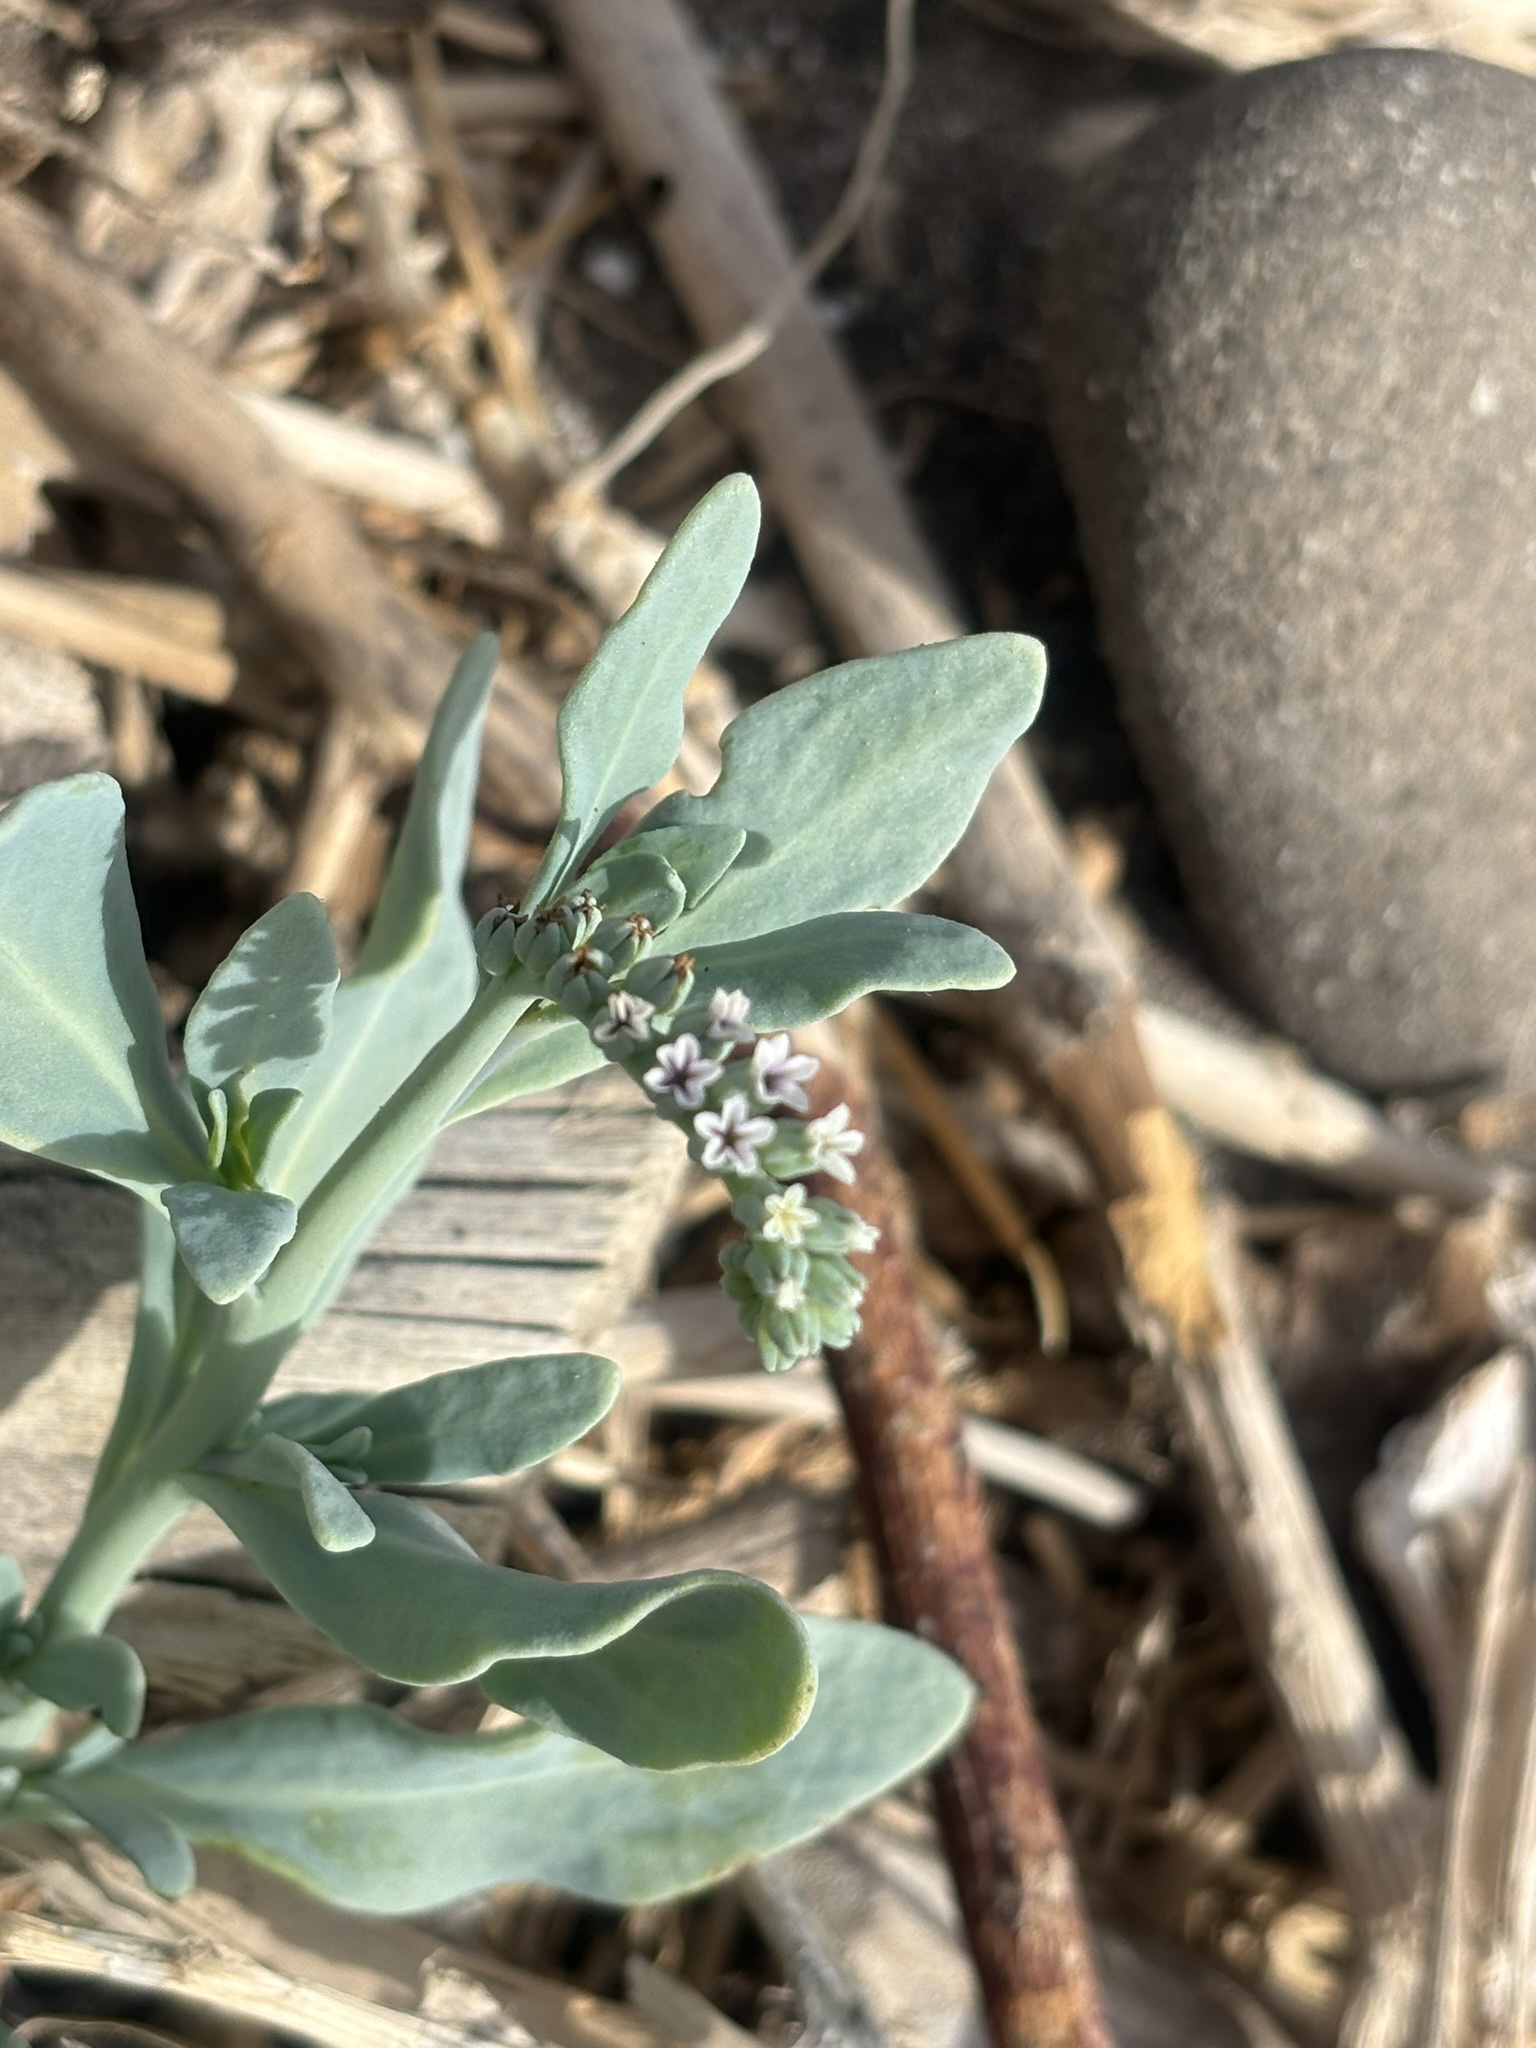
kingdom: Plantae
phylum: Tracheophyta
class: Magnoliopsida
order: Boraginales
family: Heliotropiaceae
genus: Heliotropium
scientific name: Heliotropium curassavicum
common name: Seaside heliotrope
